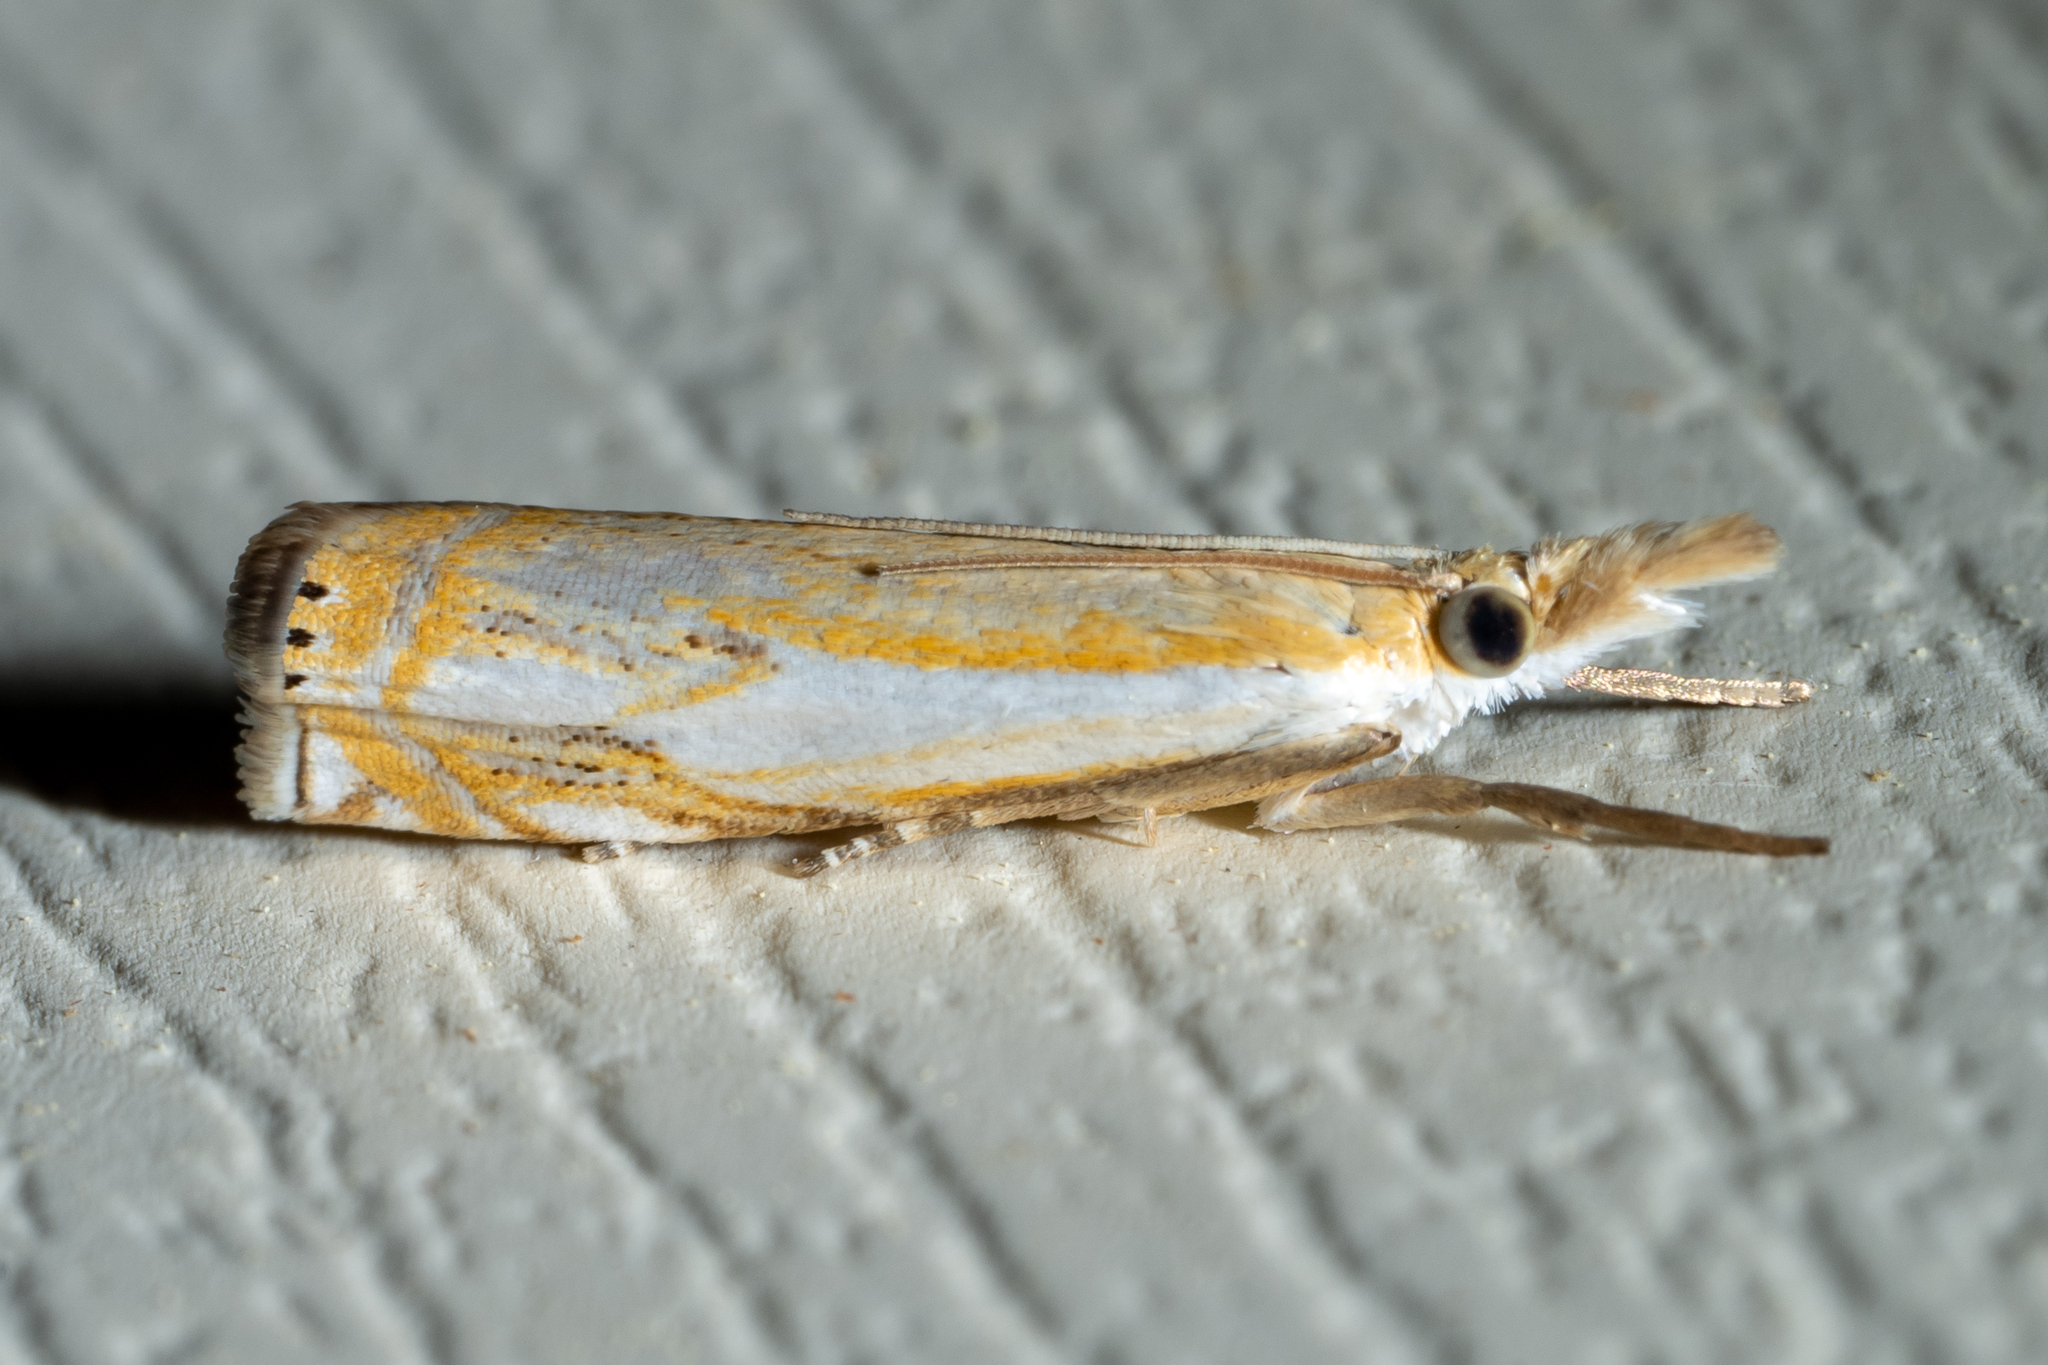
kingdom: Animalia
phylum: Arthropoda
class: Insecta
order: Lepidoptera
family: Crambidae
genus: Crambus
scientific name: Crambus agitatellus
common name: Double-banded grass-veneer
